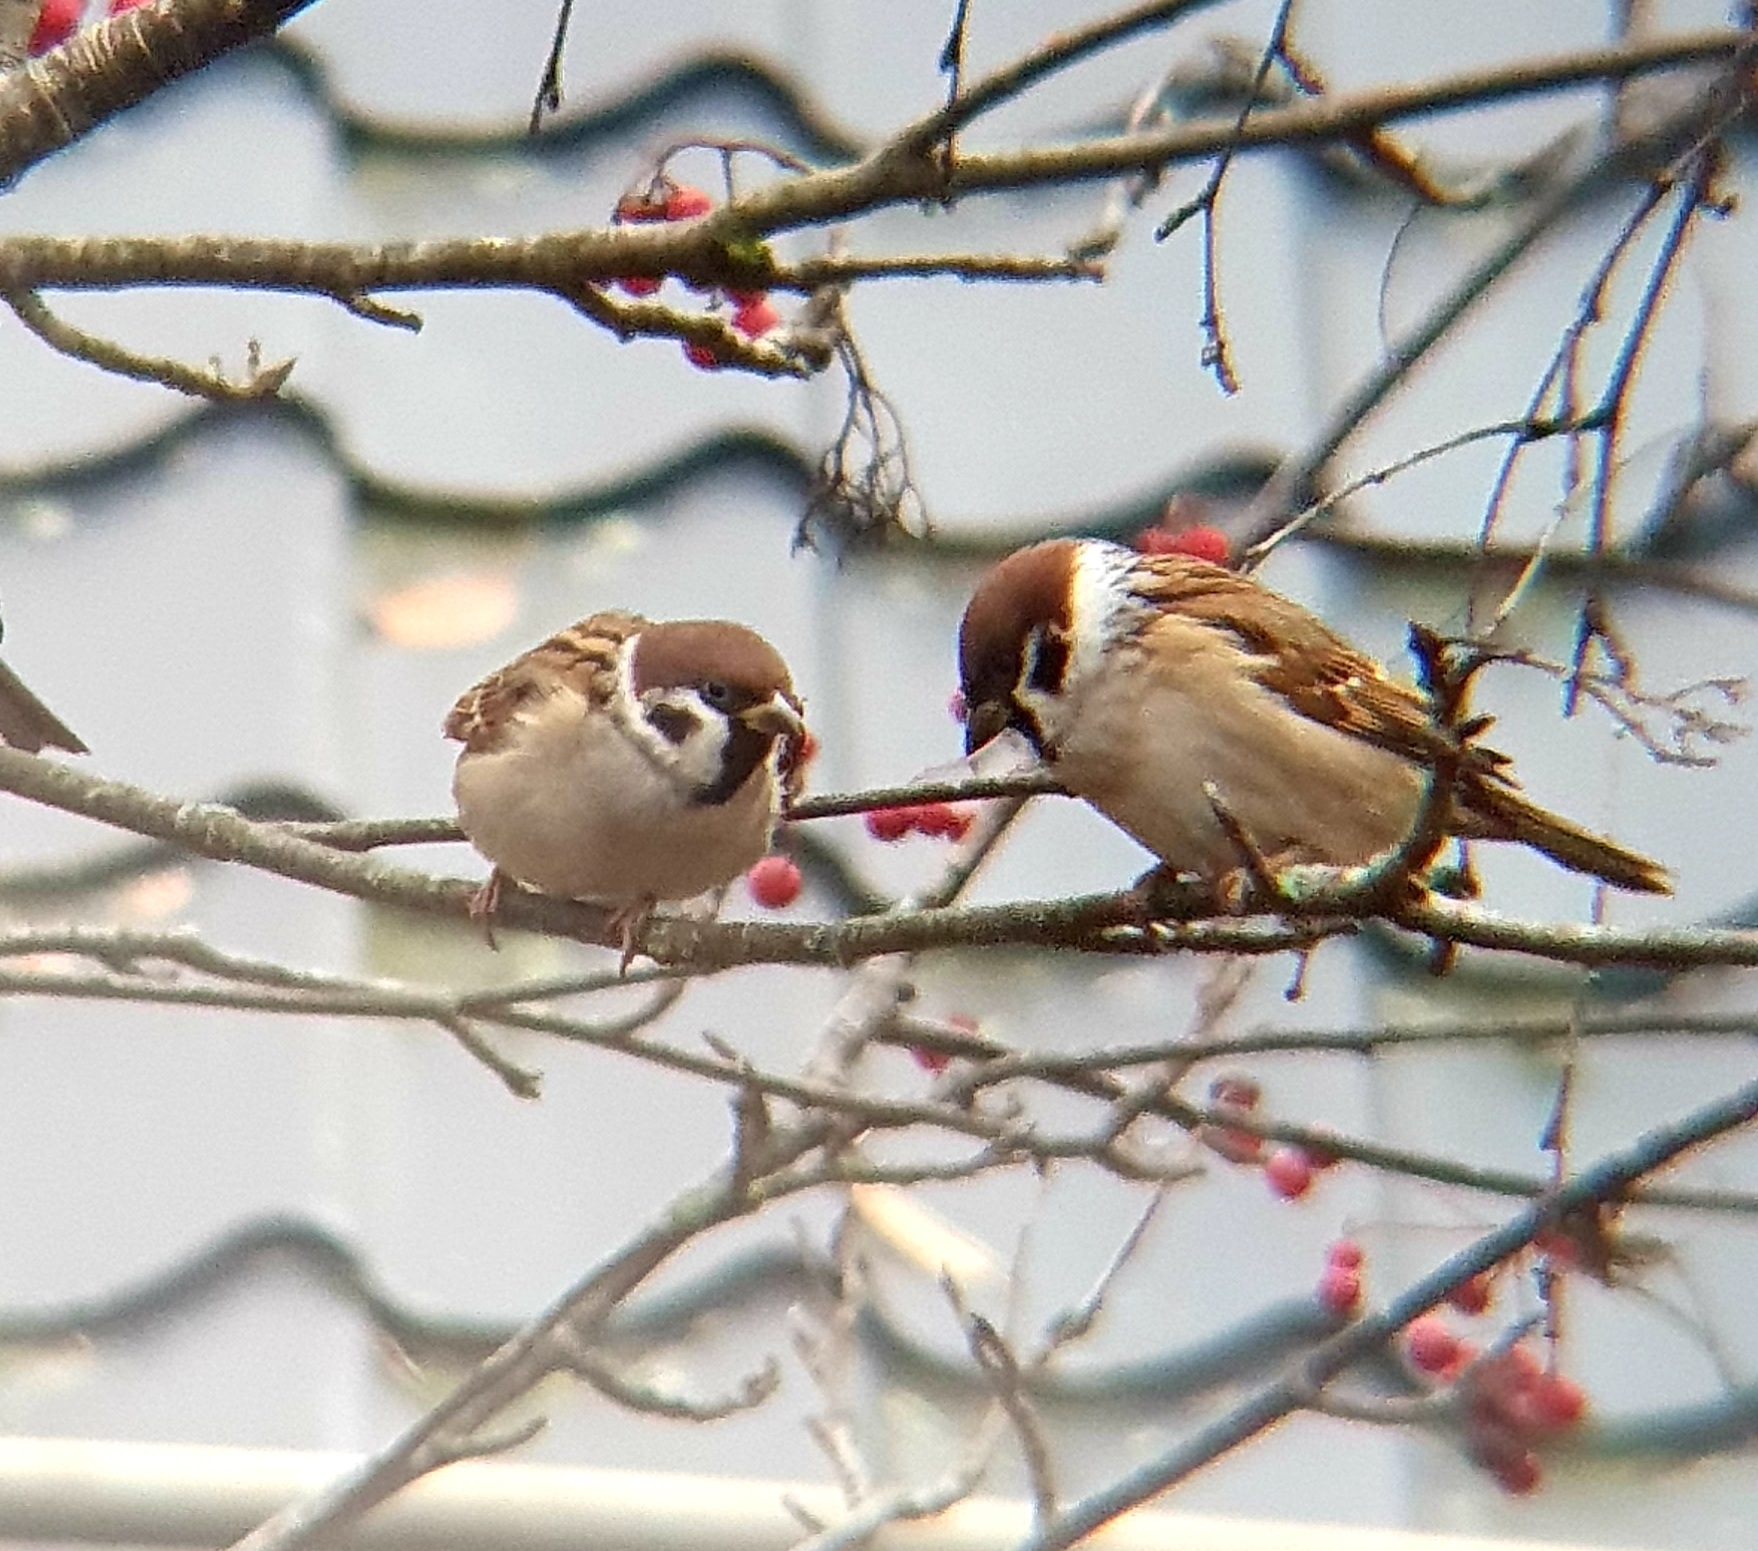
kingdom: Animalia
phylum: Chordata
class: Aves
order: Passeriformes
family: Passeridae
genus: Passer
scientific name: Passer montanus
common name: Eurasian tree sparrow
